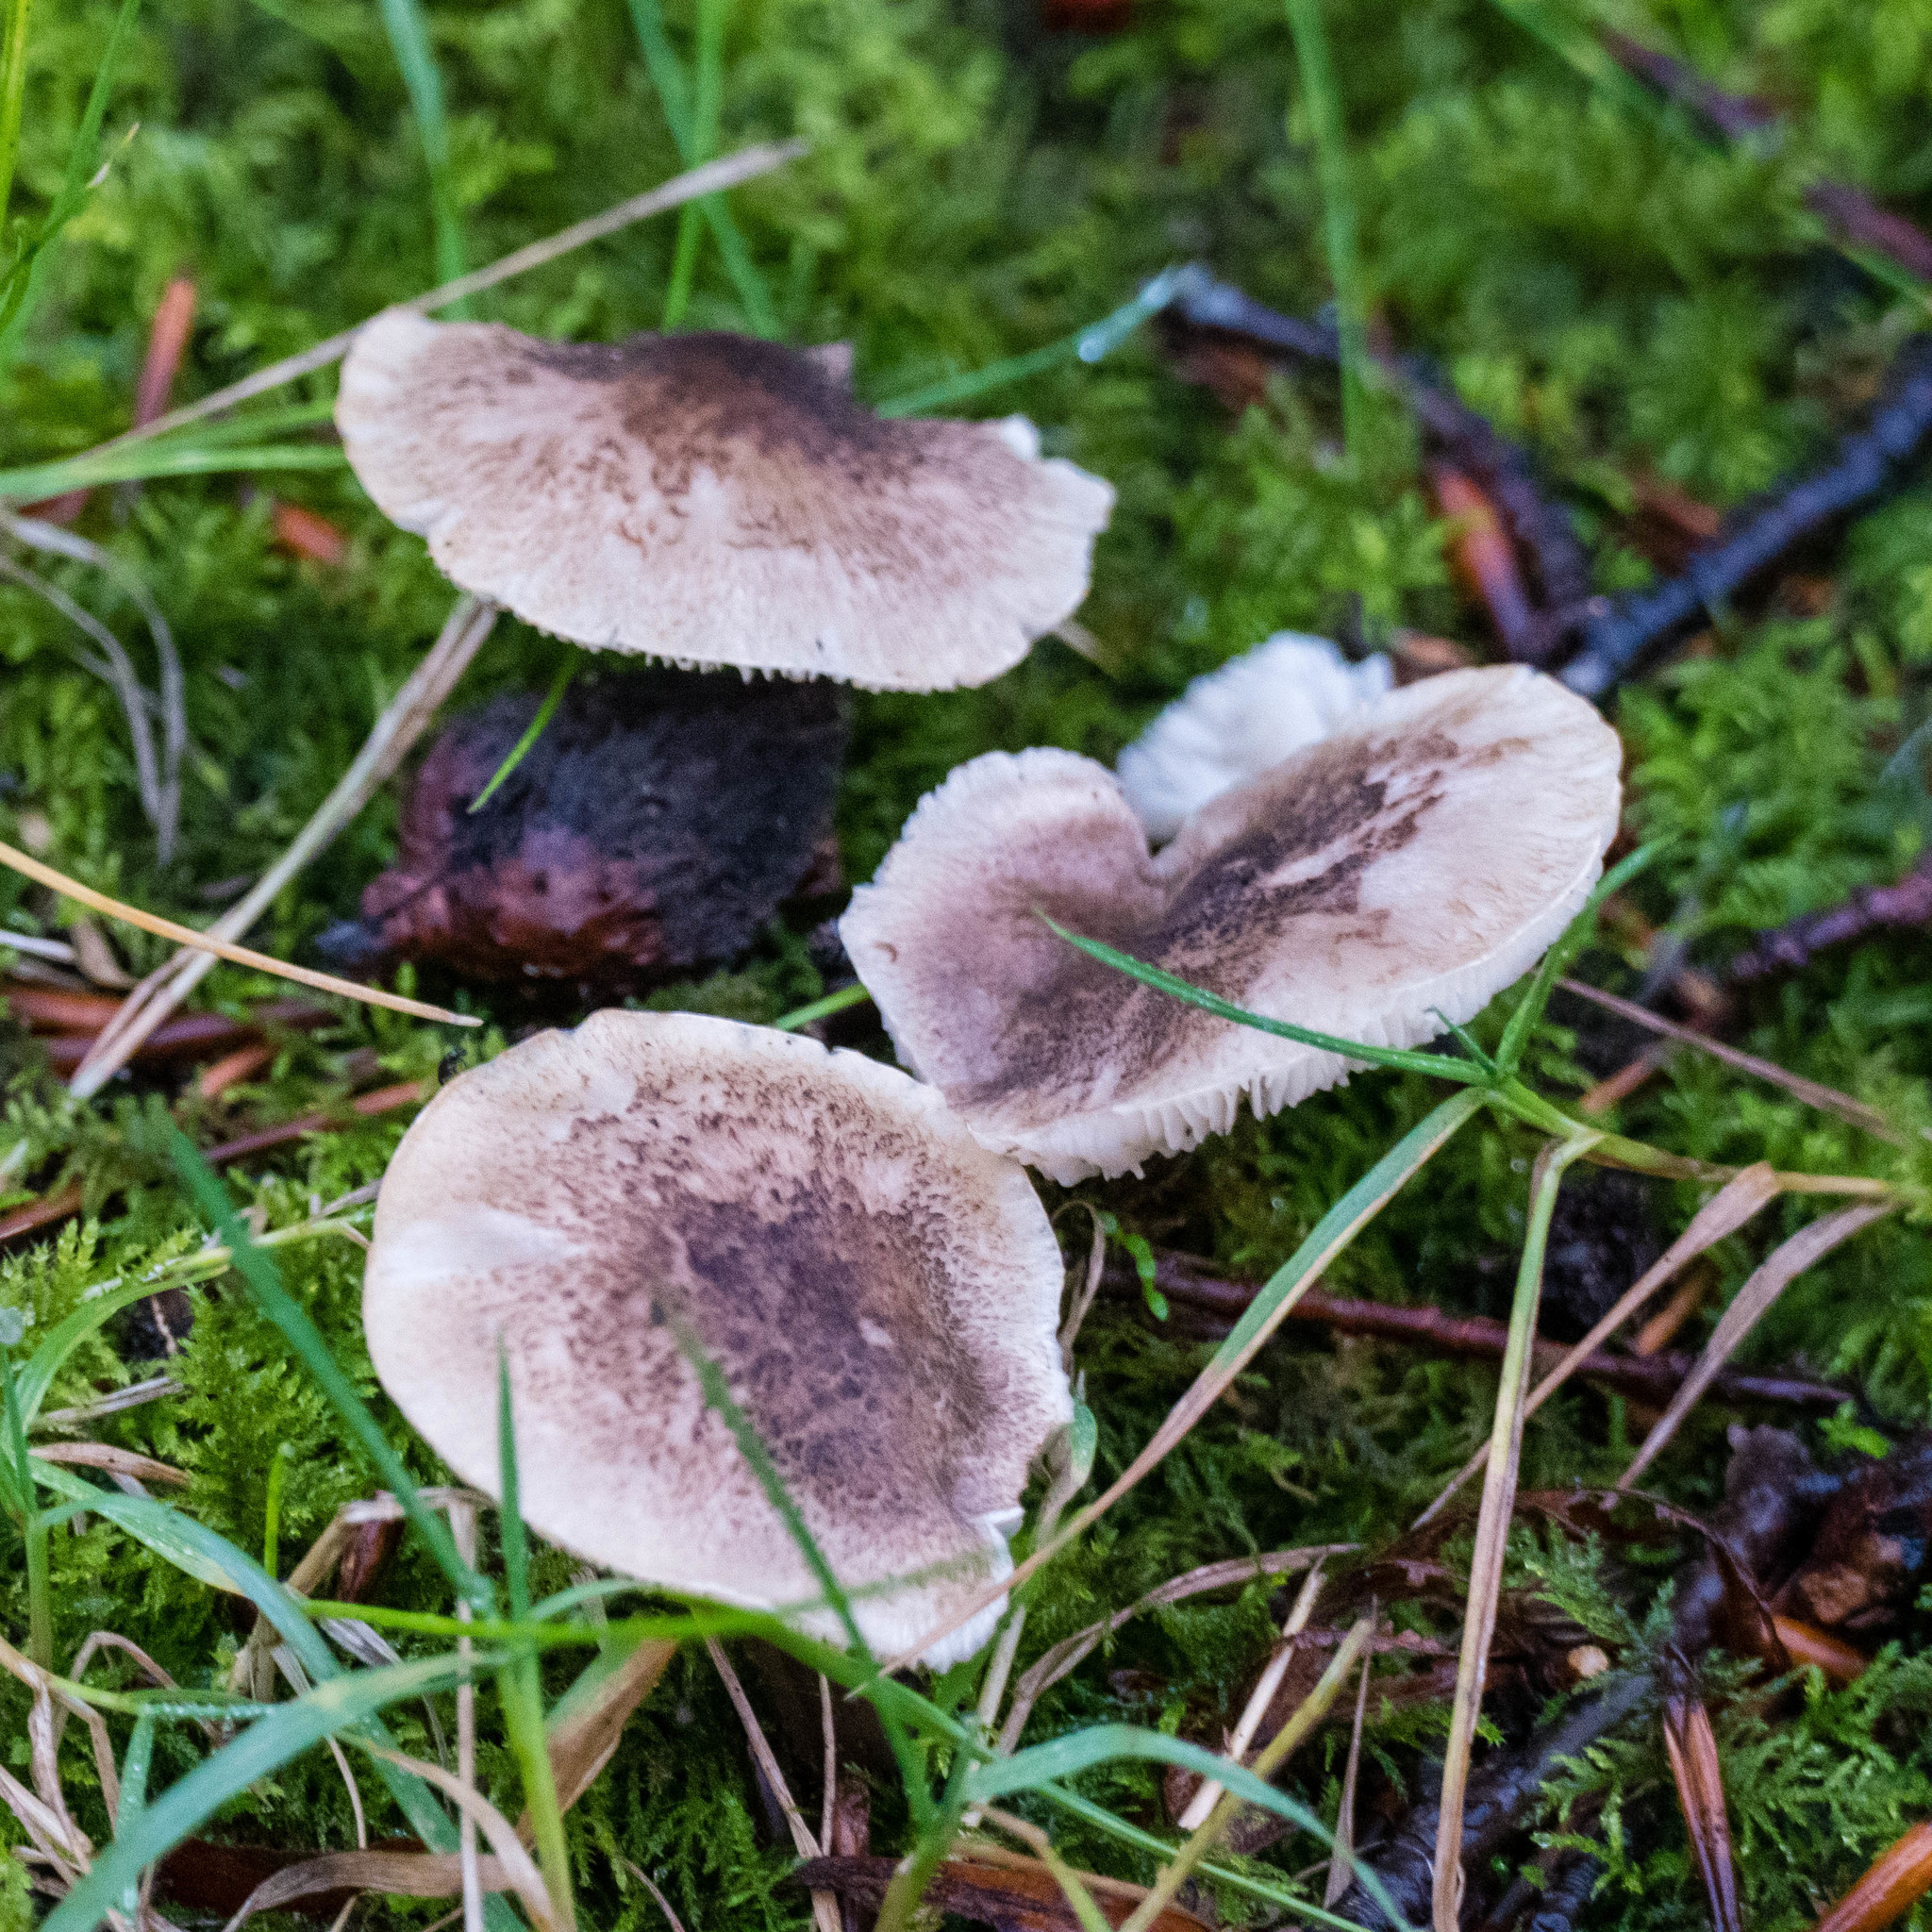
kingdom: Fungi
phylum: Basidiomycota
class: Agaricomycetes
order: Agaricales
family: Tricholomataceae
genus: Tricholoma
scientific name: Tricholoma terreum
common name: Grey knight
